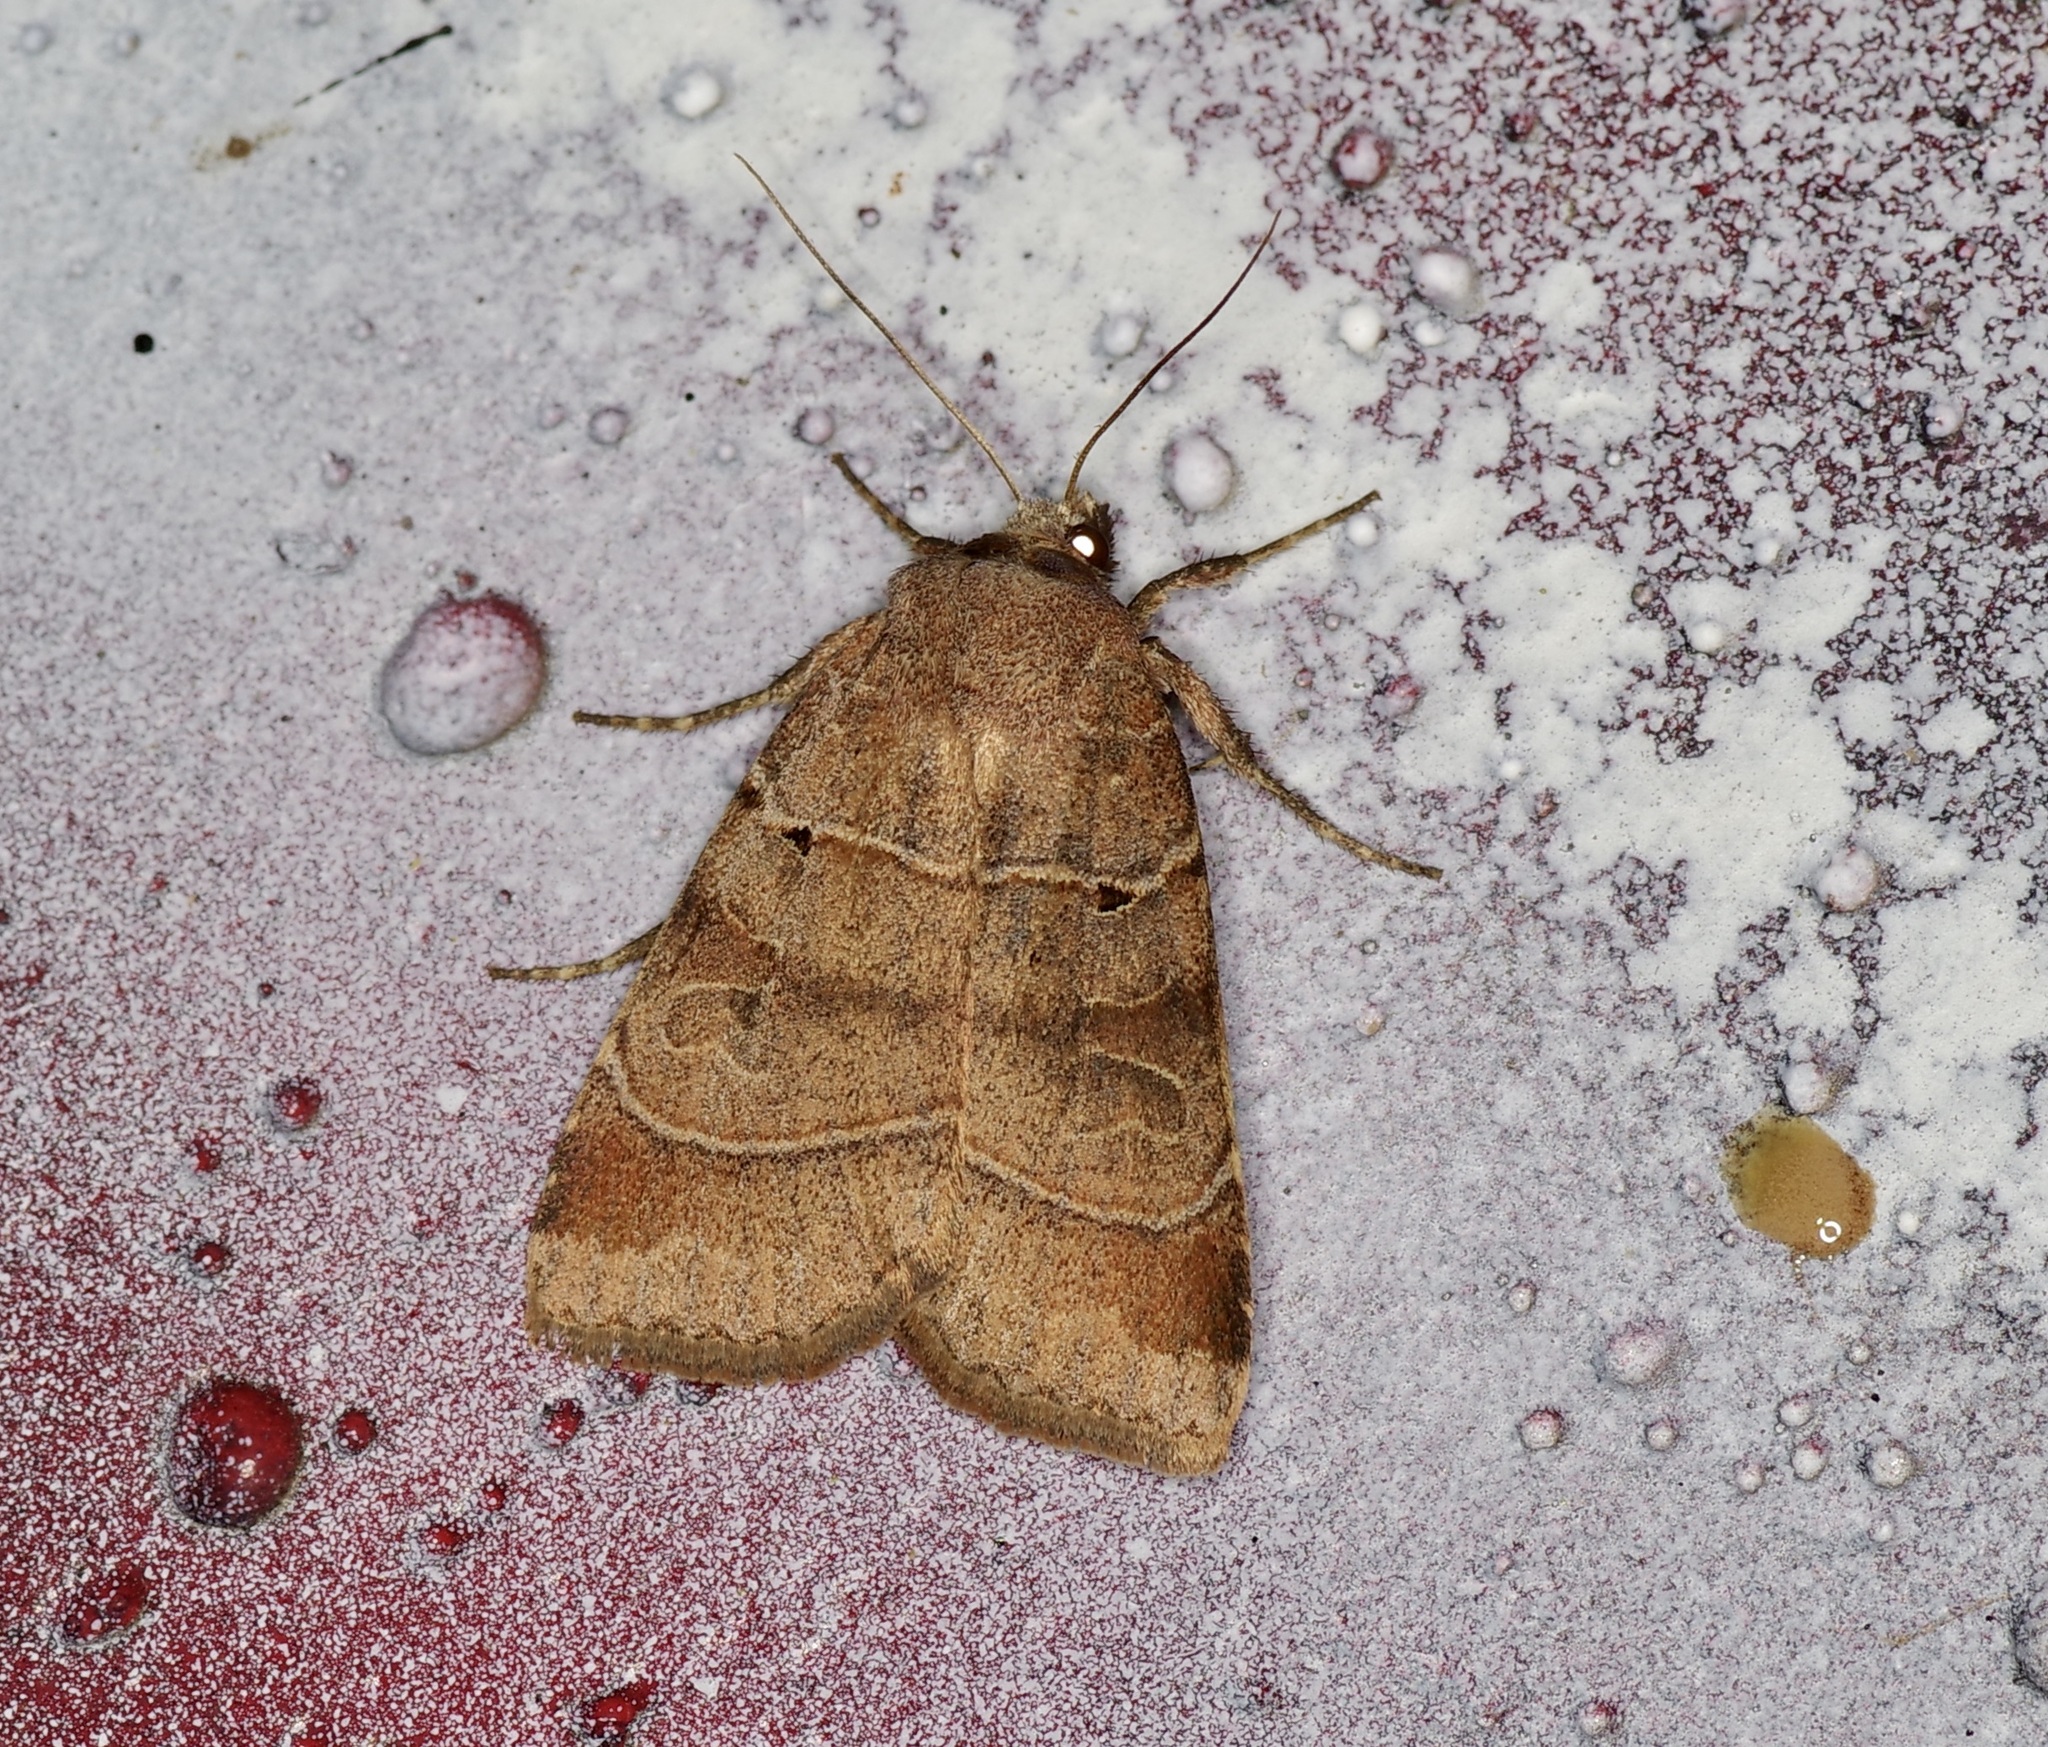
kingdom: Animalia
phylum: Arthropoda
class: Insecta
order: Lepidoptera
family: Noctuidae
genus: Agnorisma
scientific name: Agnorisma badinodis
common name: Pale-banded dart
